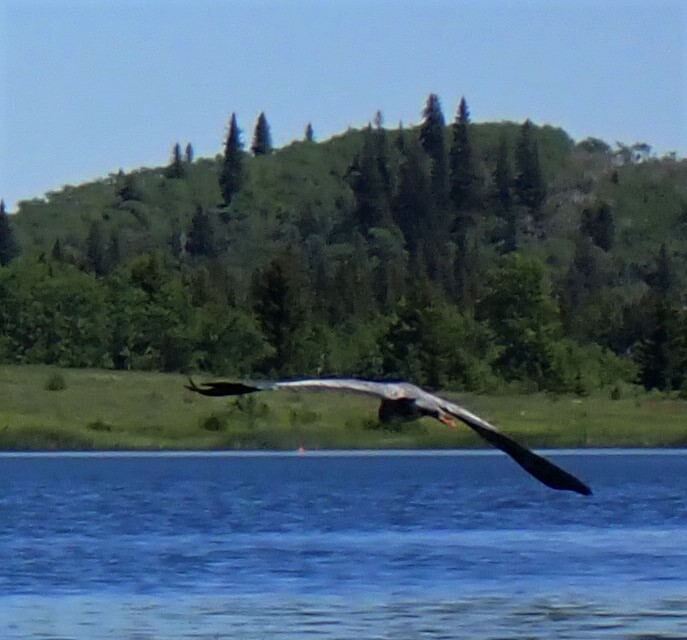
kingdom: Animalia
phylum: Chordata
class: Aves
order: Pelecaniformes
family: Ardeidae
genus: Ardea
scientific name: Ardea herodias
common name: Great blue heron
